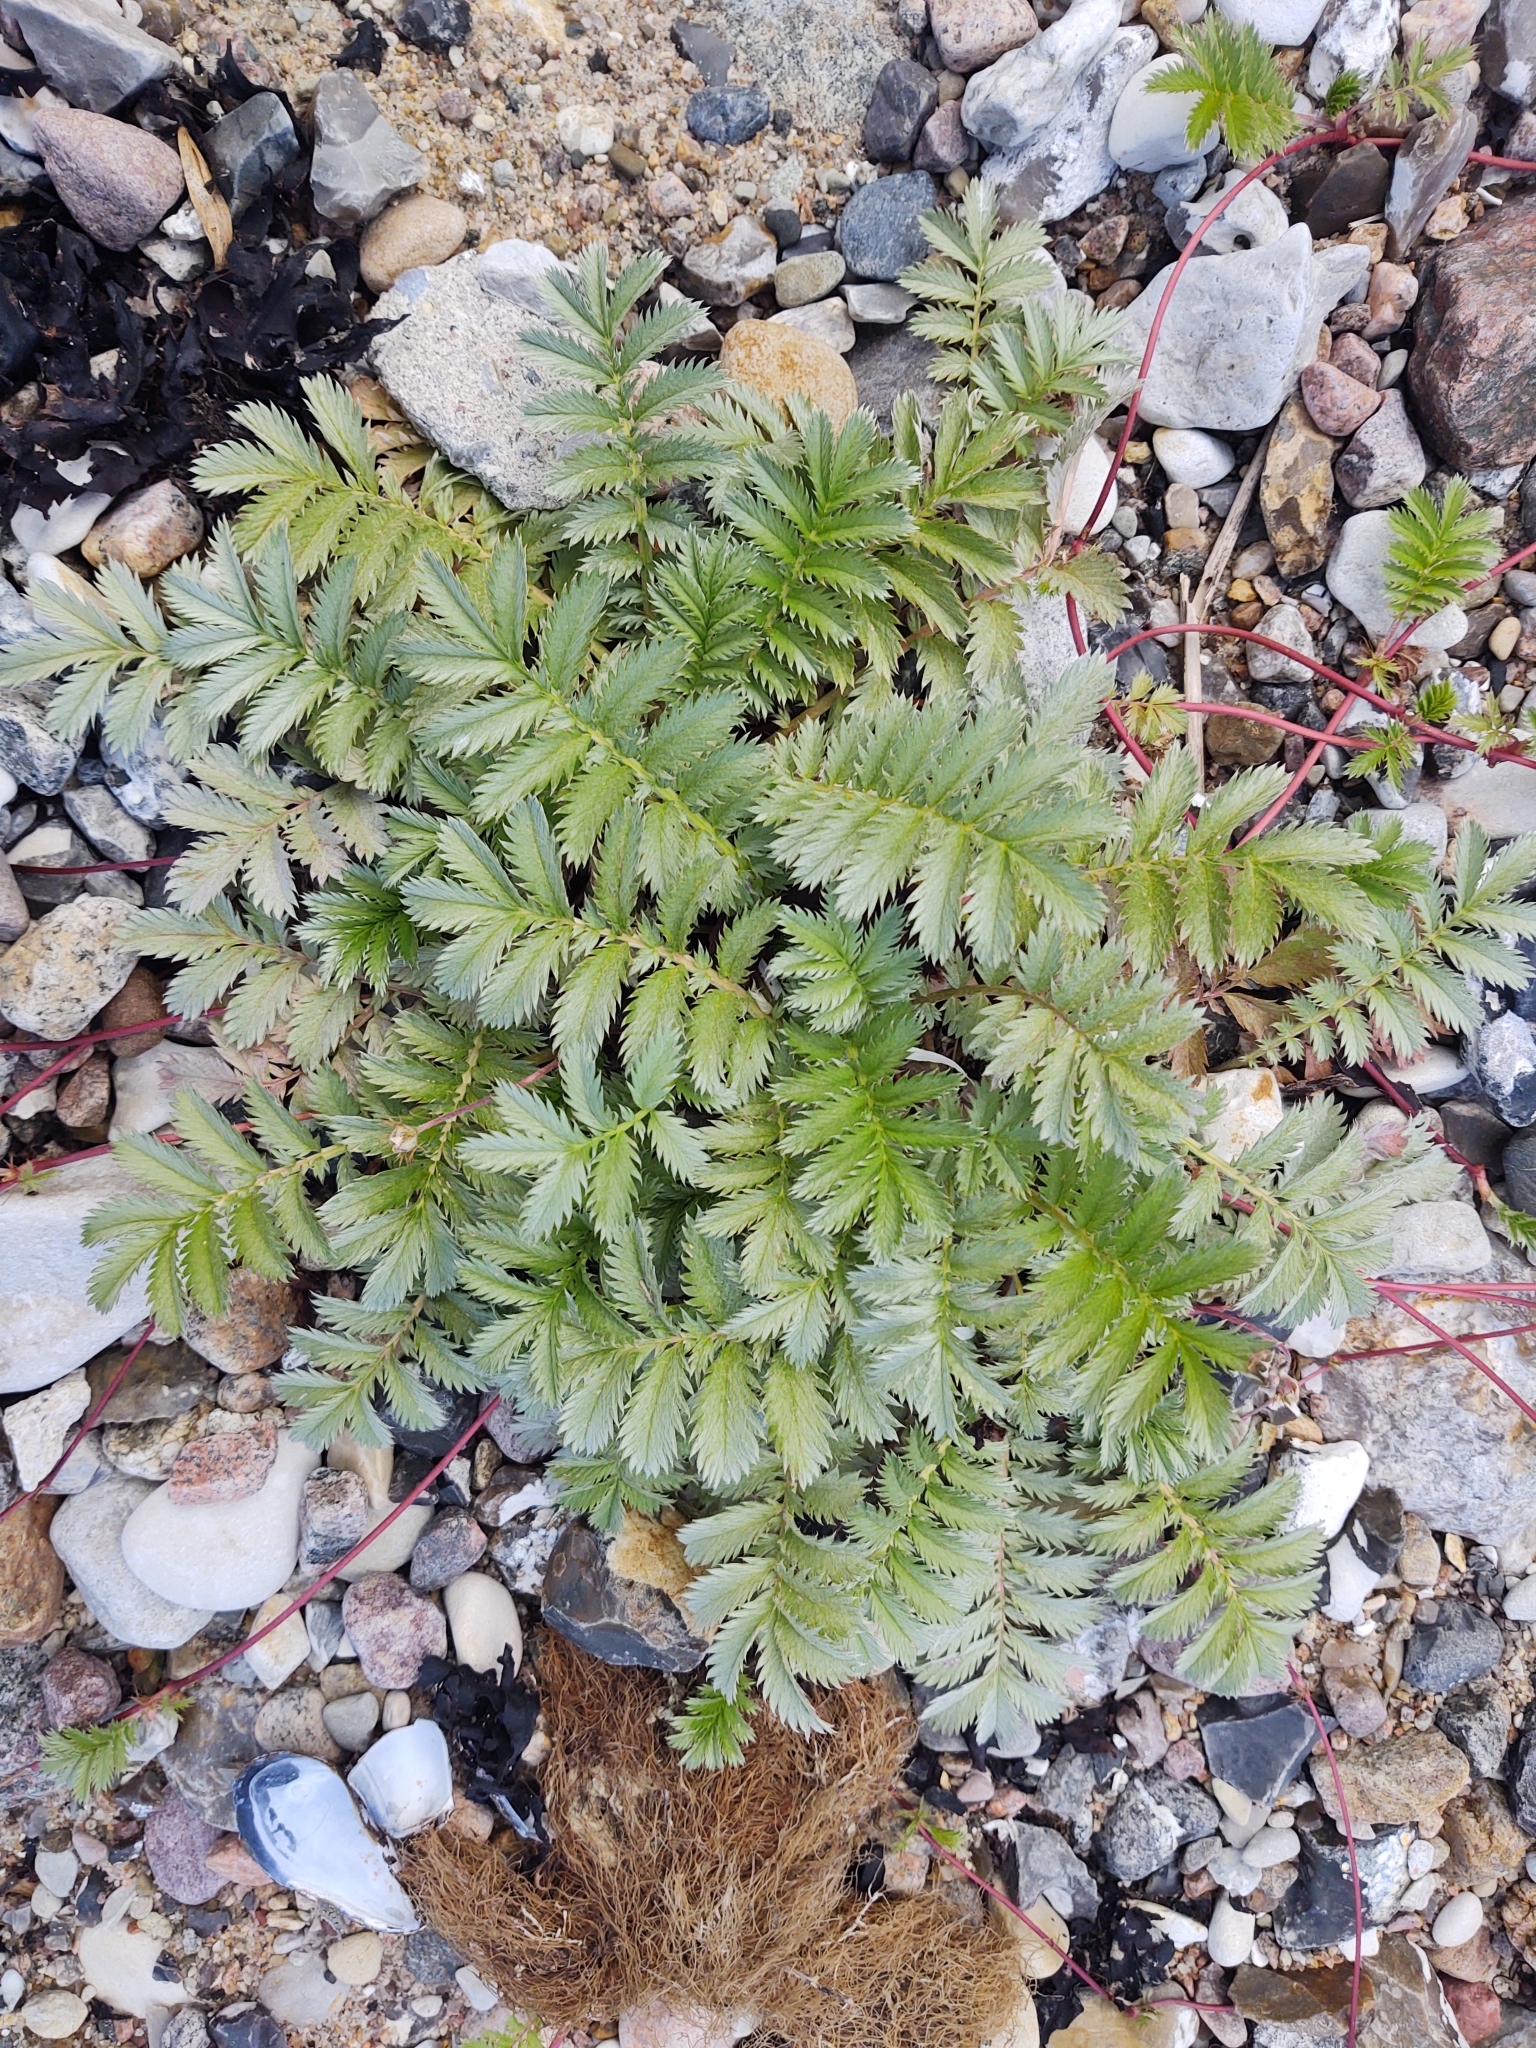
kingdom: Plantae
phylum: Tracheophyta
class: Magnoliopsida
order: Rosales
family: Rosaceae
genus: Argentina
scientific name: Argentina anserina
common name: Common silverweed
